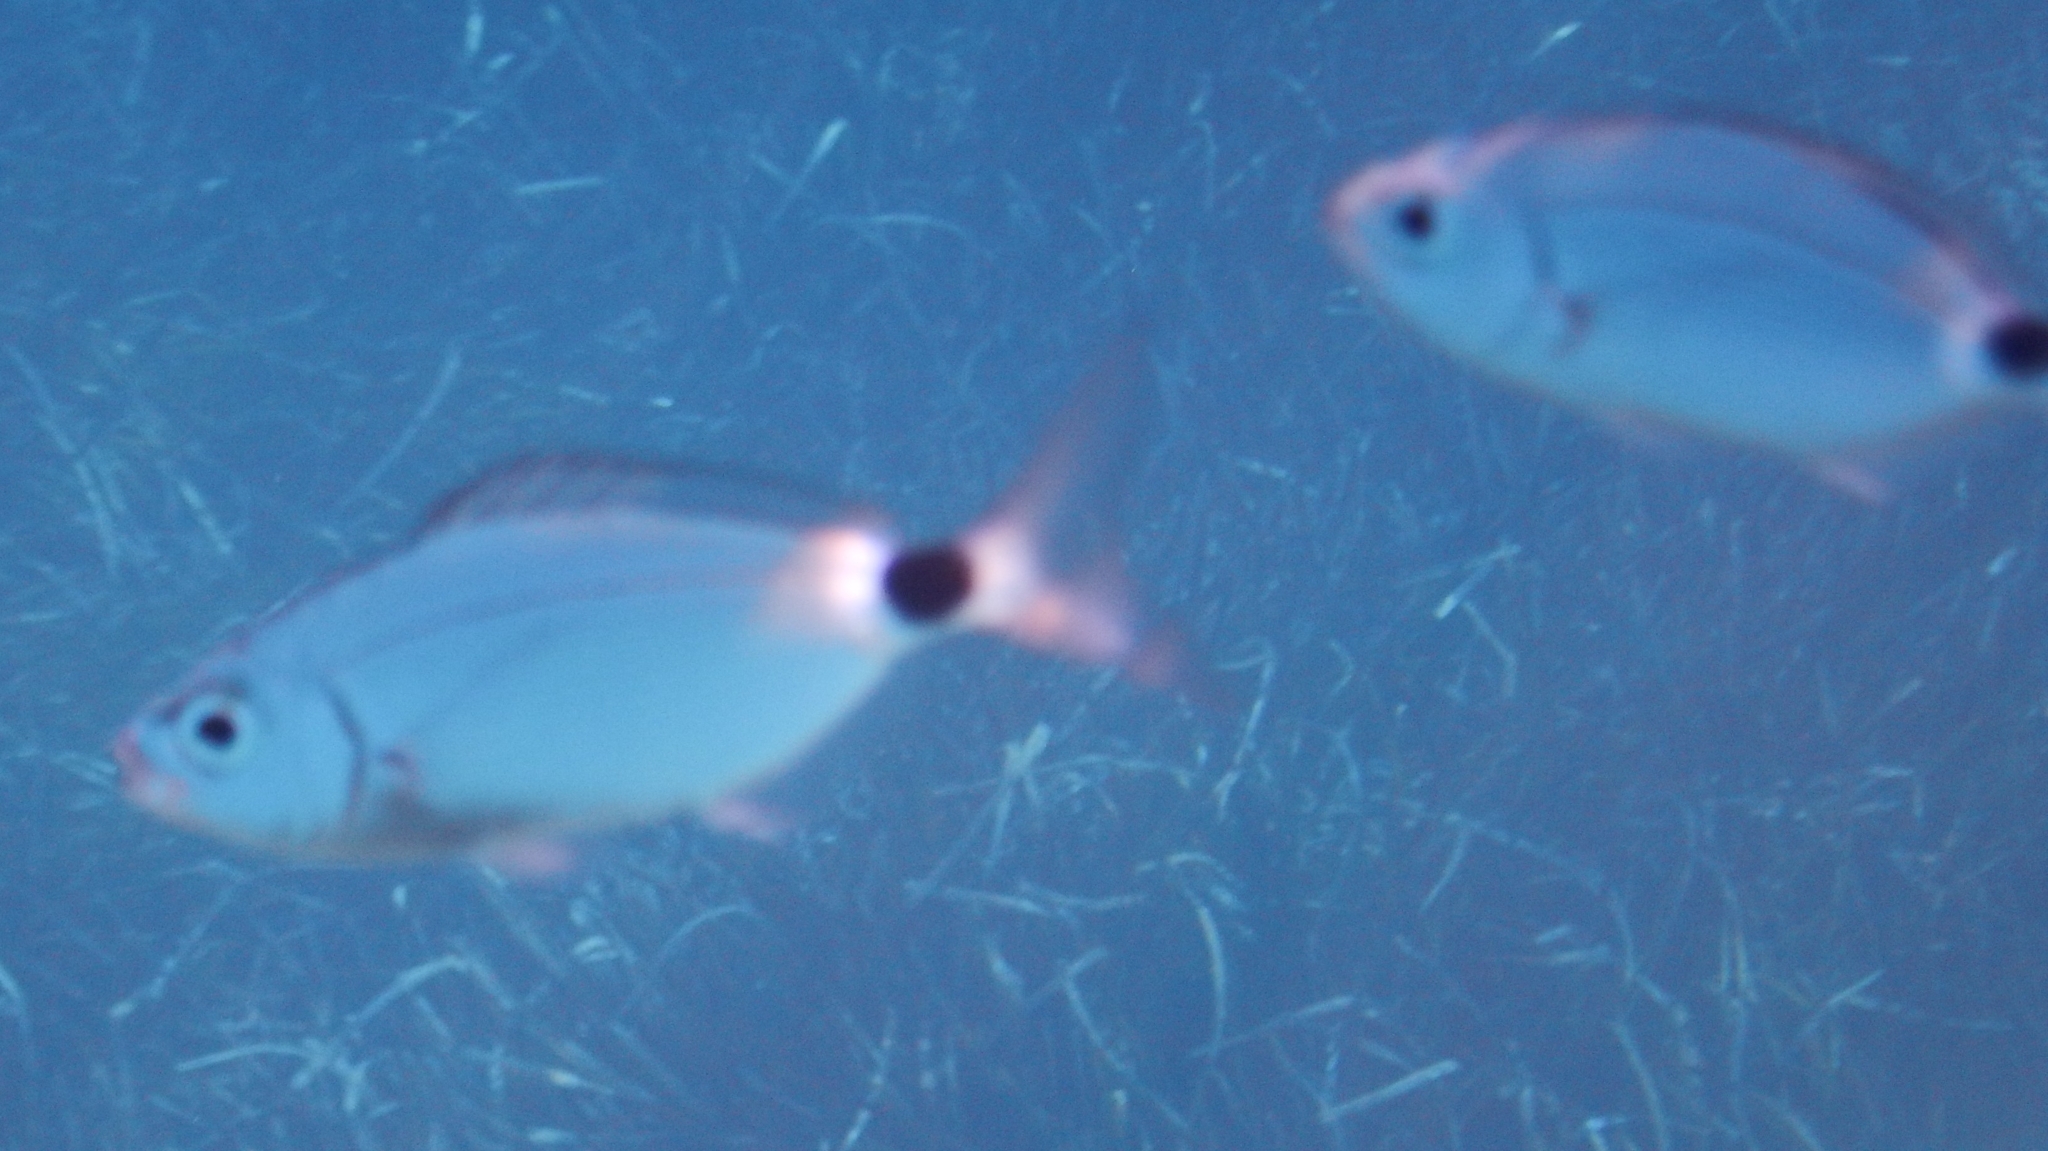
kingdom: Animalia
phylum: Chordata
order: Perciformes
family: Sparidae
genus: Oblada
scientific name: Oblada melanura
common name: Saddled seabream
